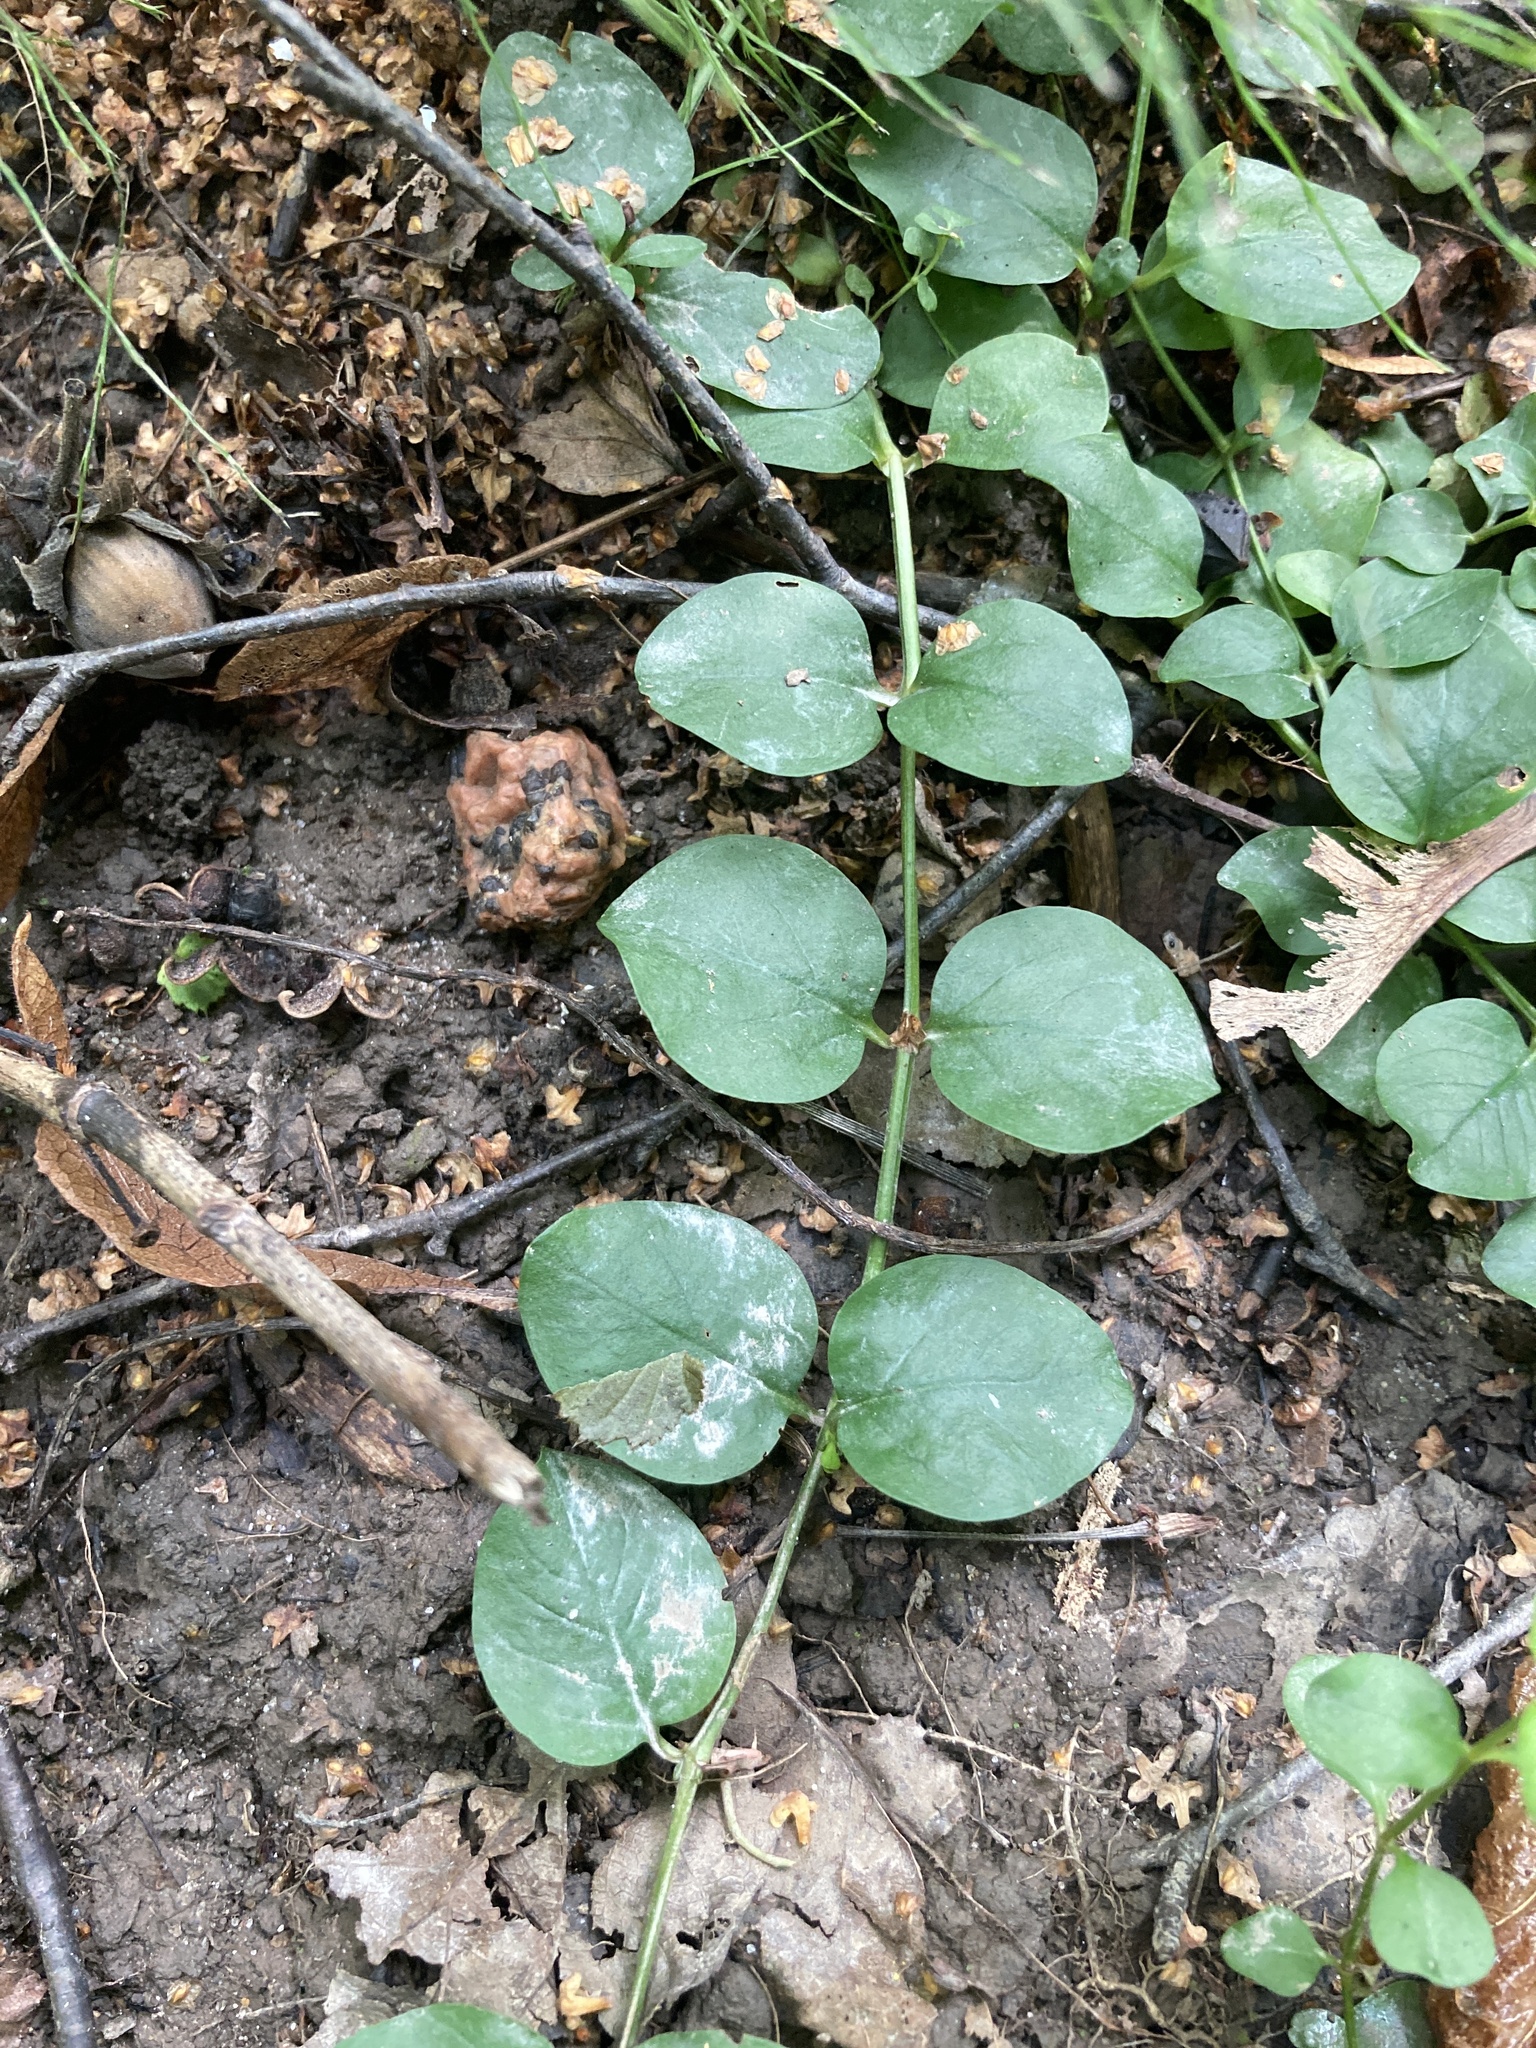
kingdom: Plantae
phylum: Tracheophyta
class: Magnoliopsida
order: Ericales
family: Primulaceae
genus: Lysimachia
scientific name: Lysimachia nummularia
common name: Moneywort
